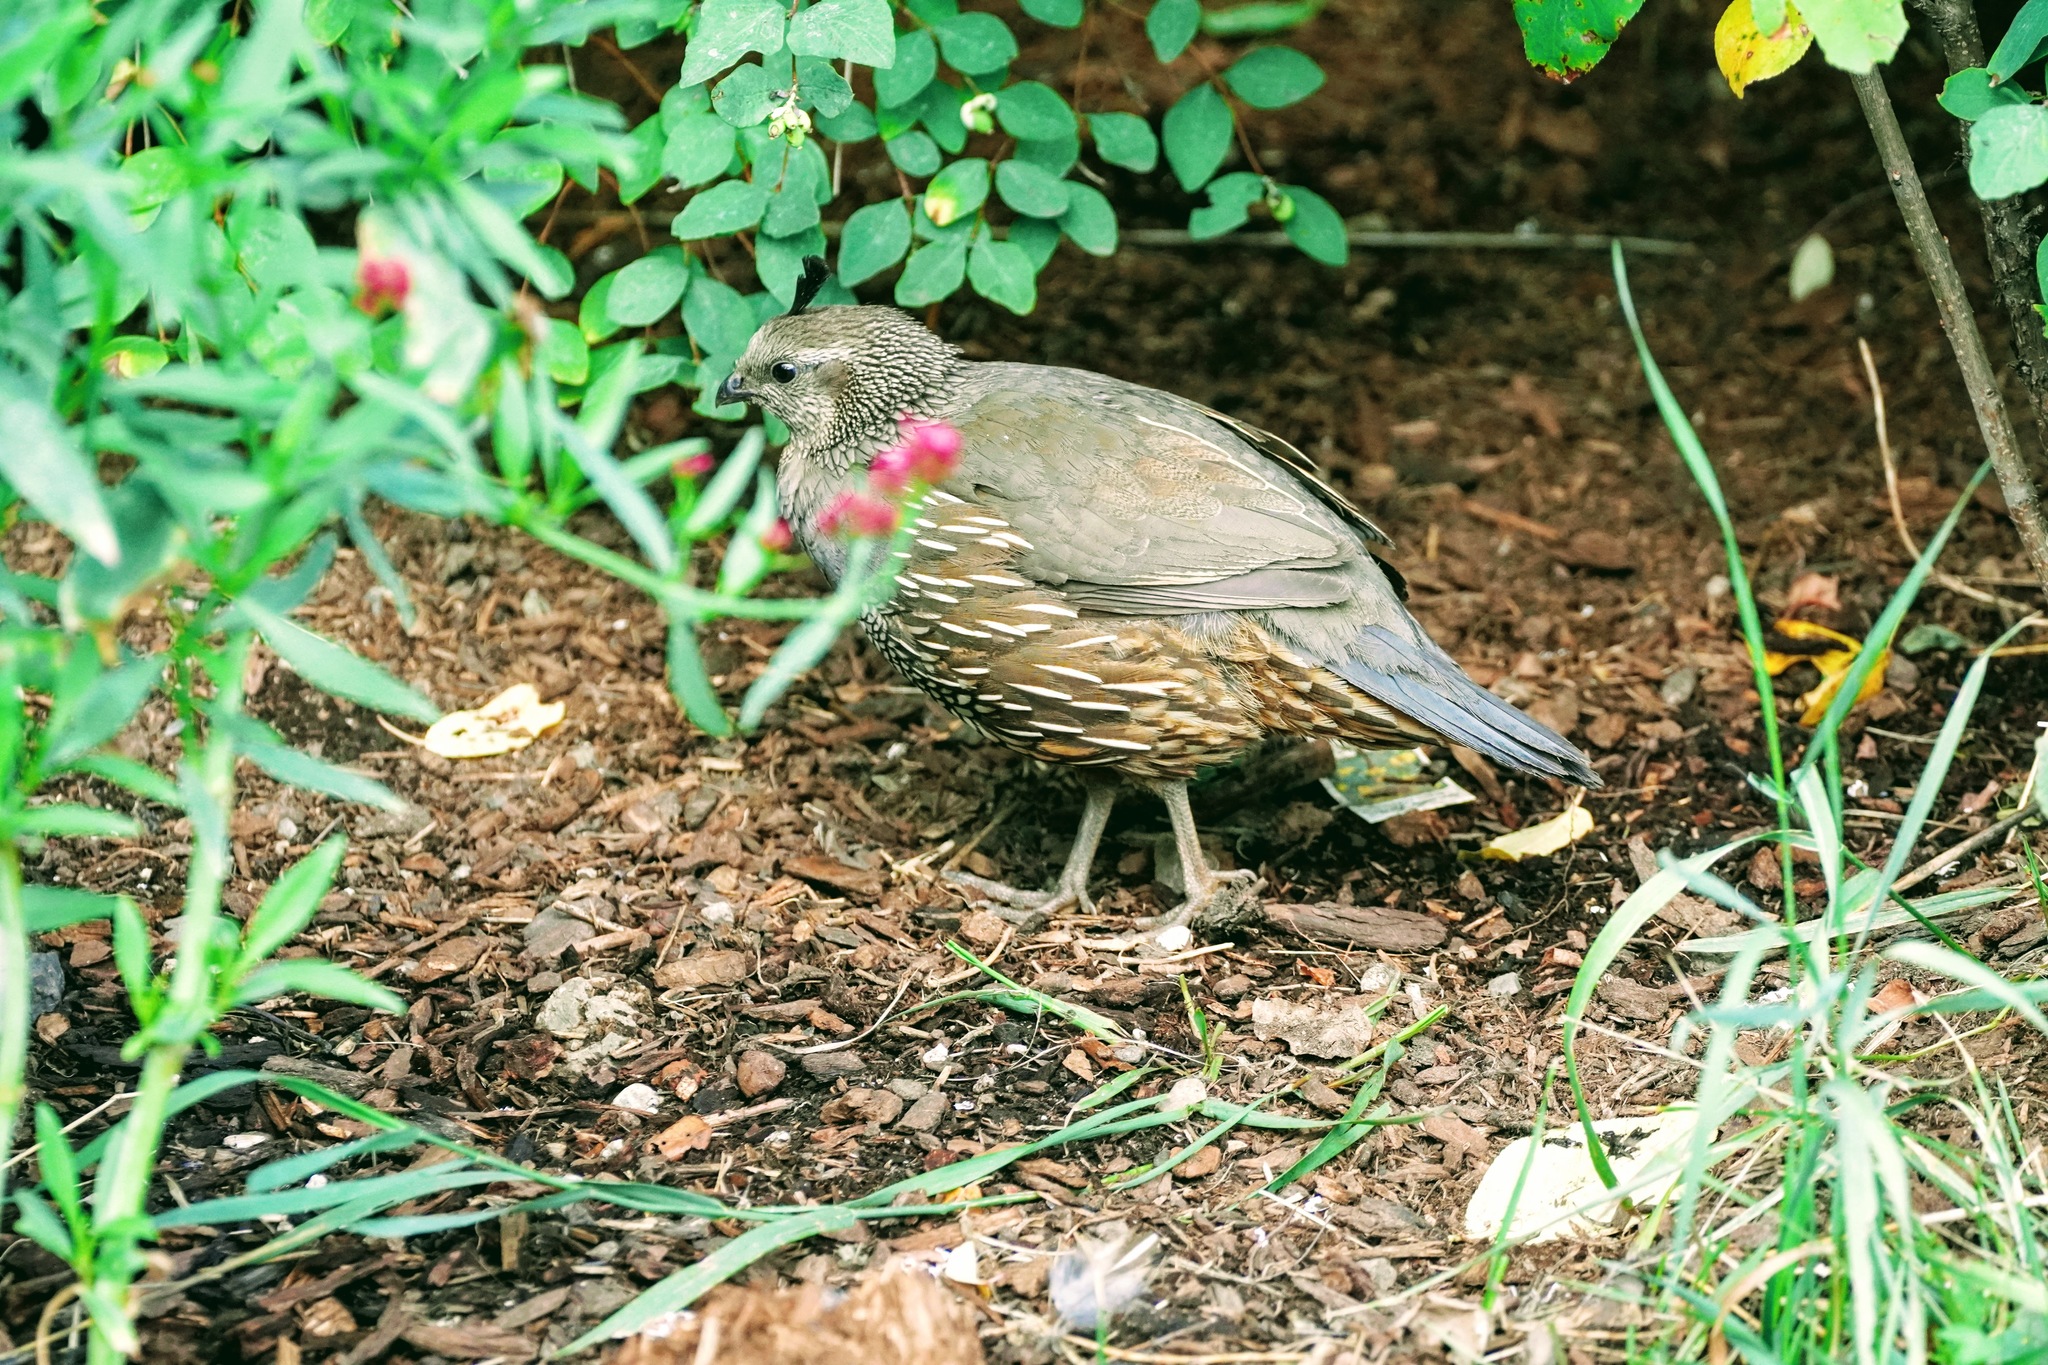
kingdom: Animalia
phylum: Chordata
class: Aves
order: Galliformes
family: Odontophoridae
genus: Callipepla
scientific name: Callipepla californica
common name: California quail
